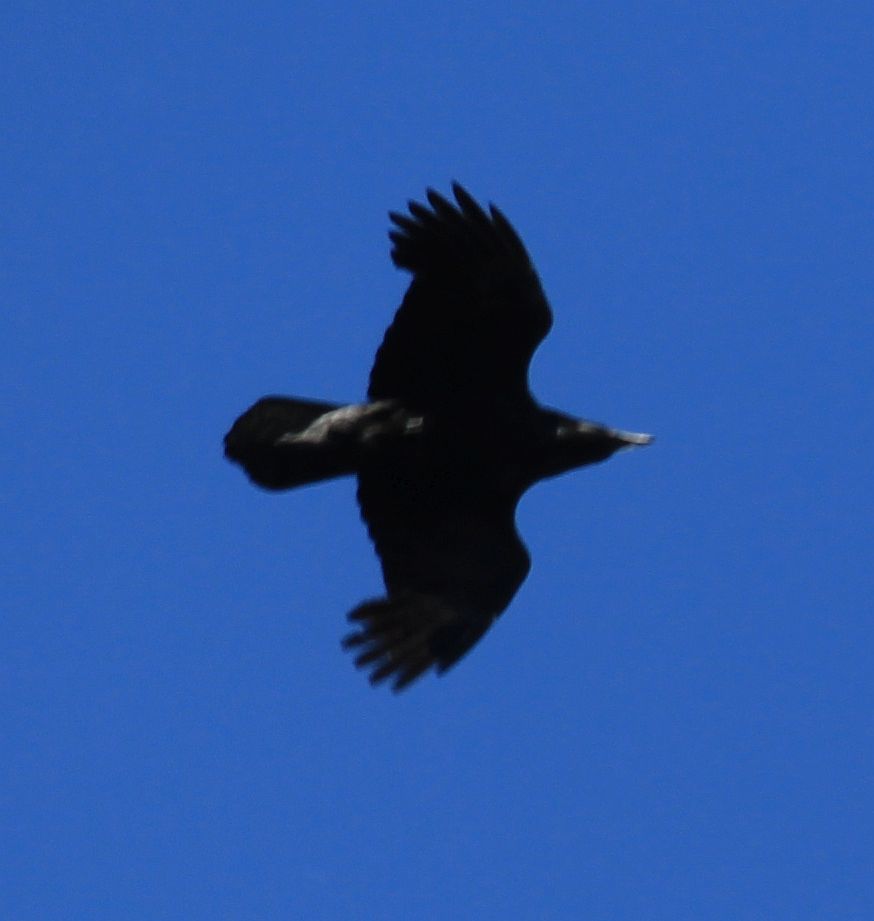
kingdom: Animalia
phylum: Chordata
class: Aves
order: Passeriformes
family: Corvidae
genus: Corvus
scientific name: Corvus corax
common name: Common raven
